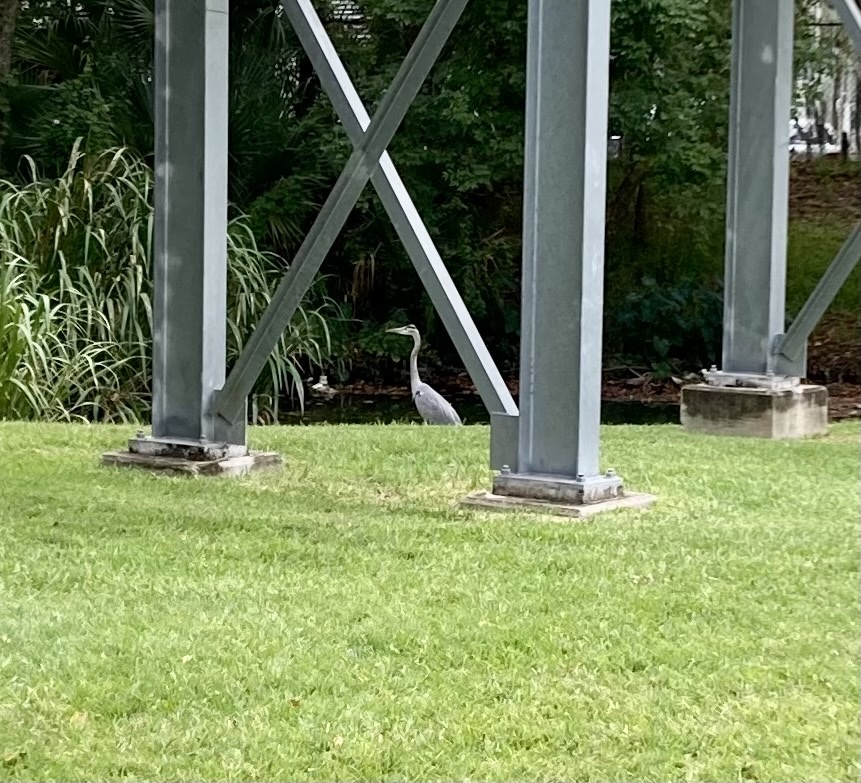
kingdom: Animalia
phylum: Chordata
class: Aves
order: Pelecaniformes
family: Ardeidae
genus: Ardea
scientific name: Ardea herodias
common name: Great blue heron
